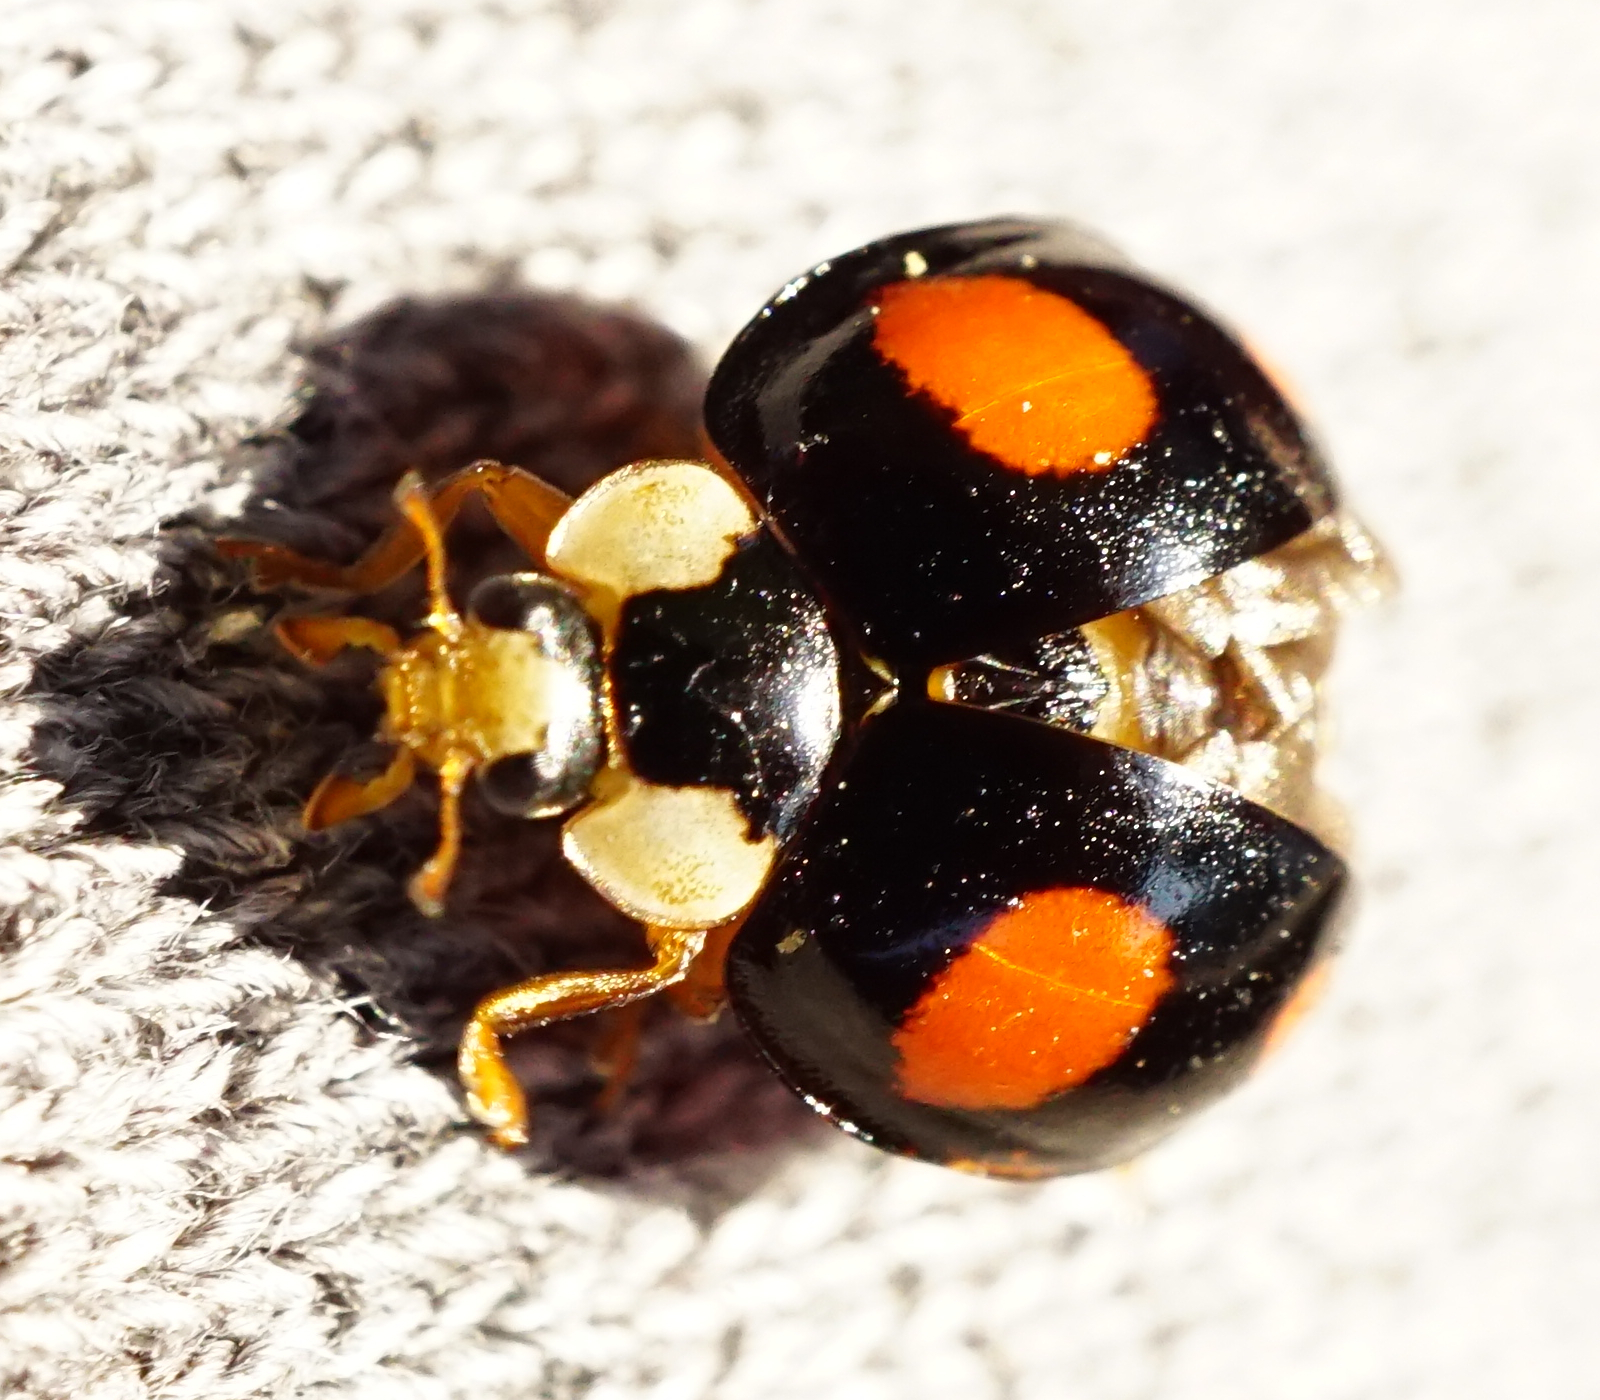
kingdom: Animalia
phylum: Arthropoda
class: Insecta
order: Coleoptera
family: Coccinellidae
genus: Harmonia
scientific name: Harmonia axyridis
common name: Harlequin ladybird
